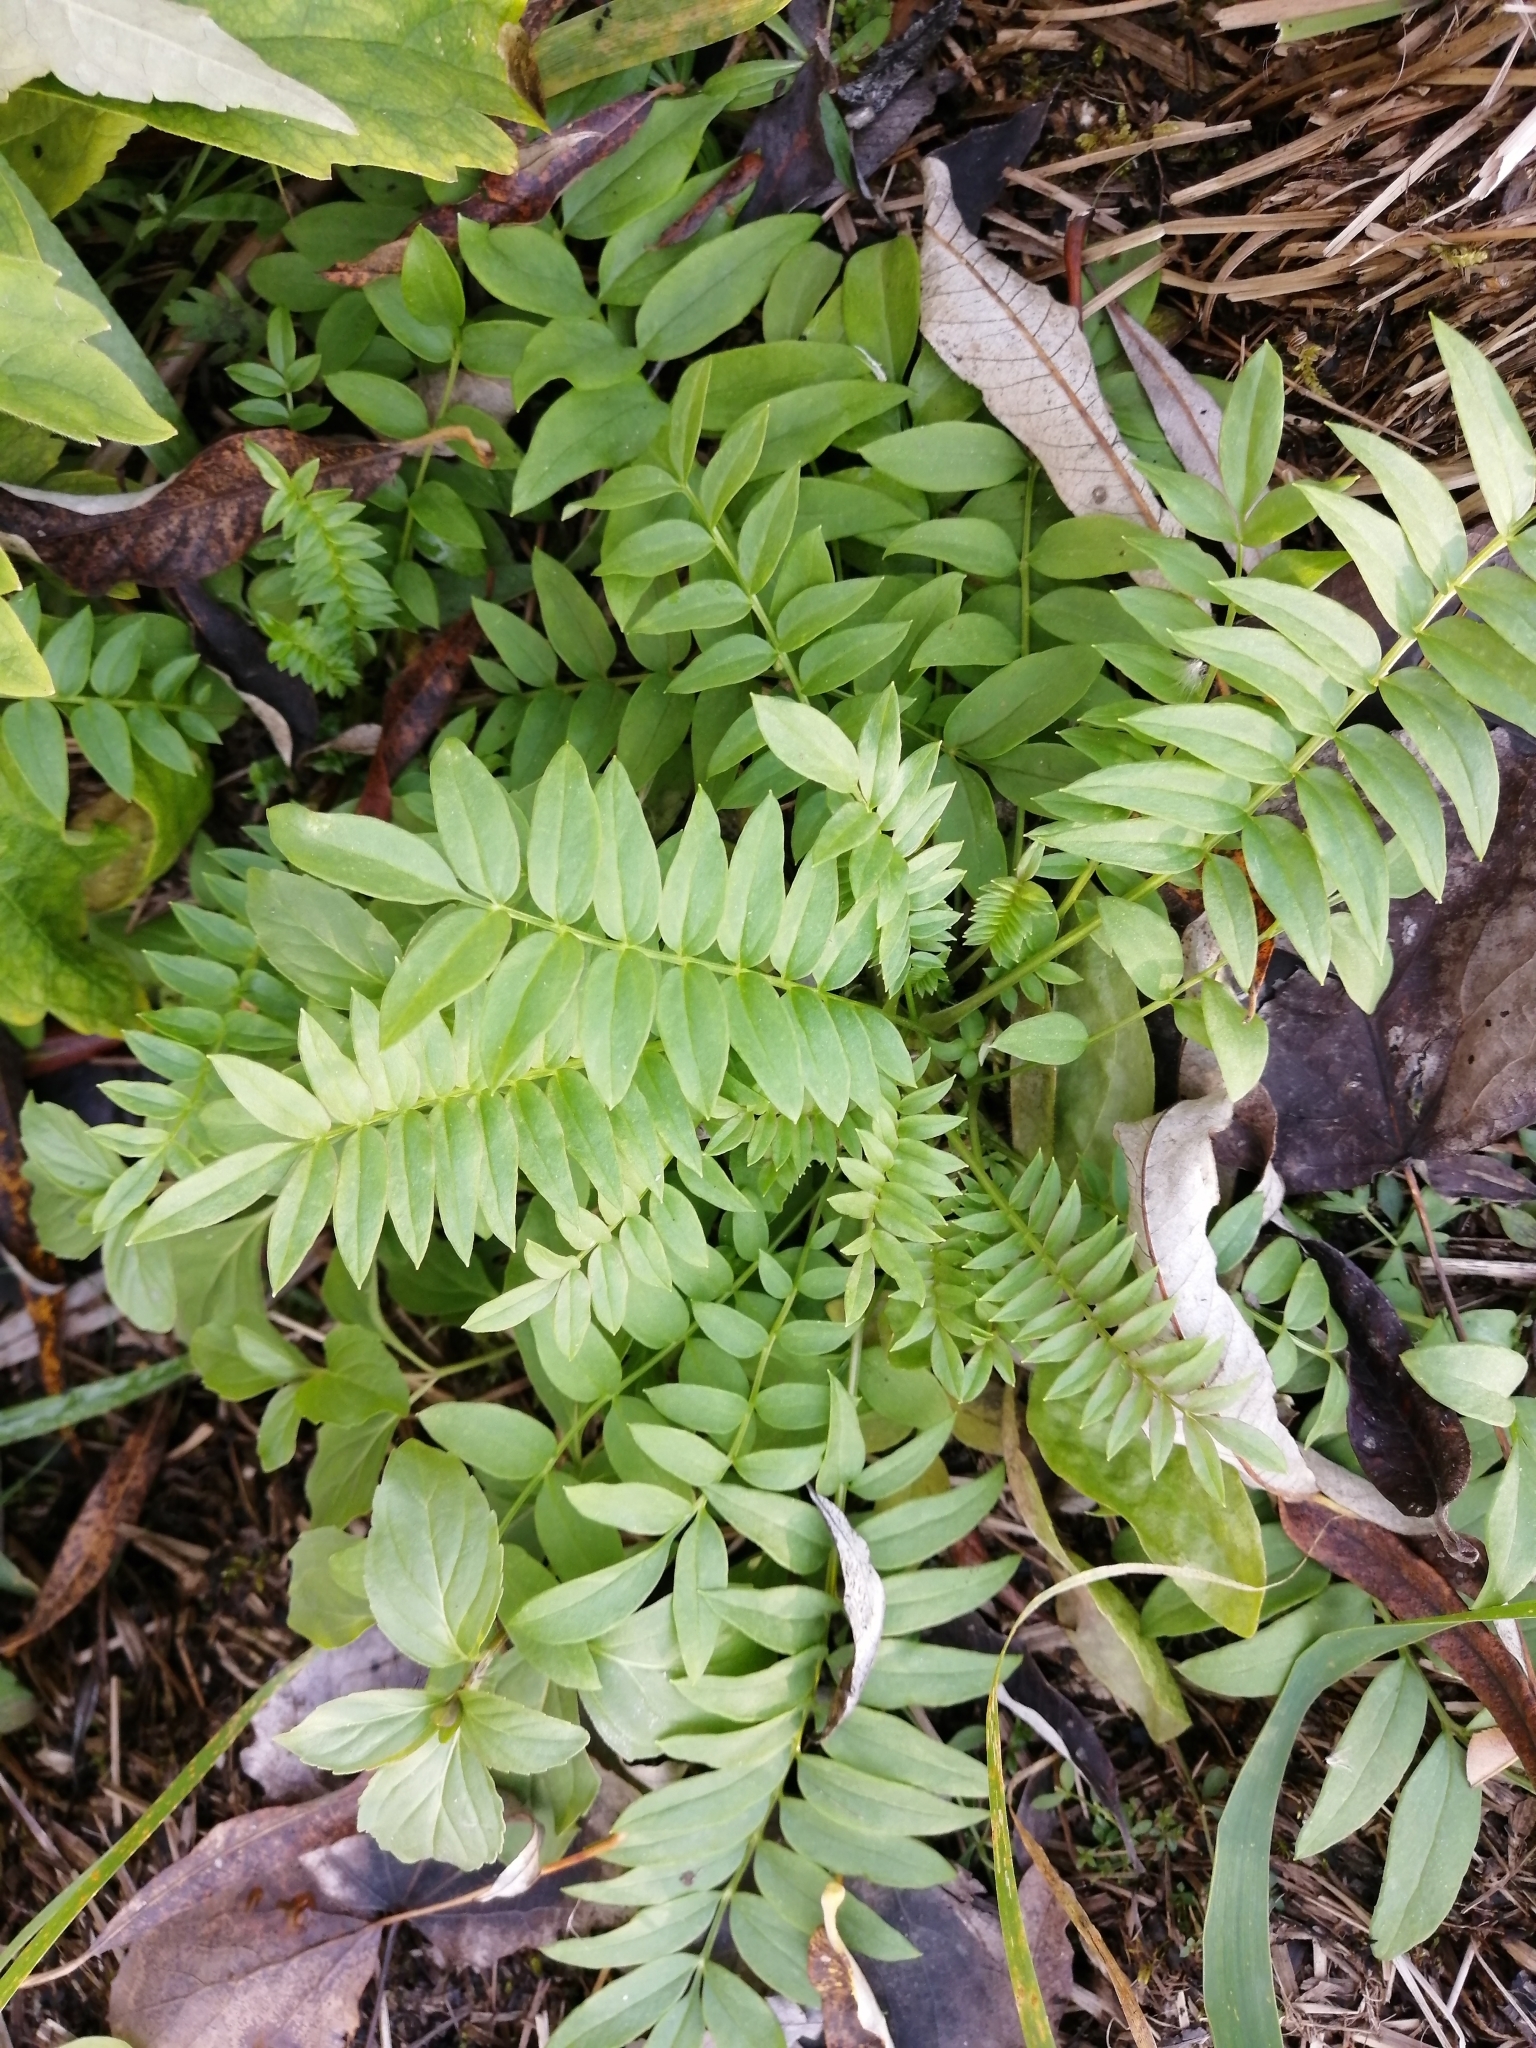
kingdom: Plantae
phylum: Tracheophyta
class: Magnoliopsida
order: Ericales
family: Polemoniaceae
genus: Polemonium
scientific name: Polemonium caeruleum
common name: Jacob's-ladder
